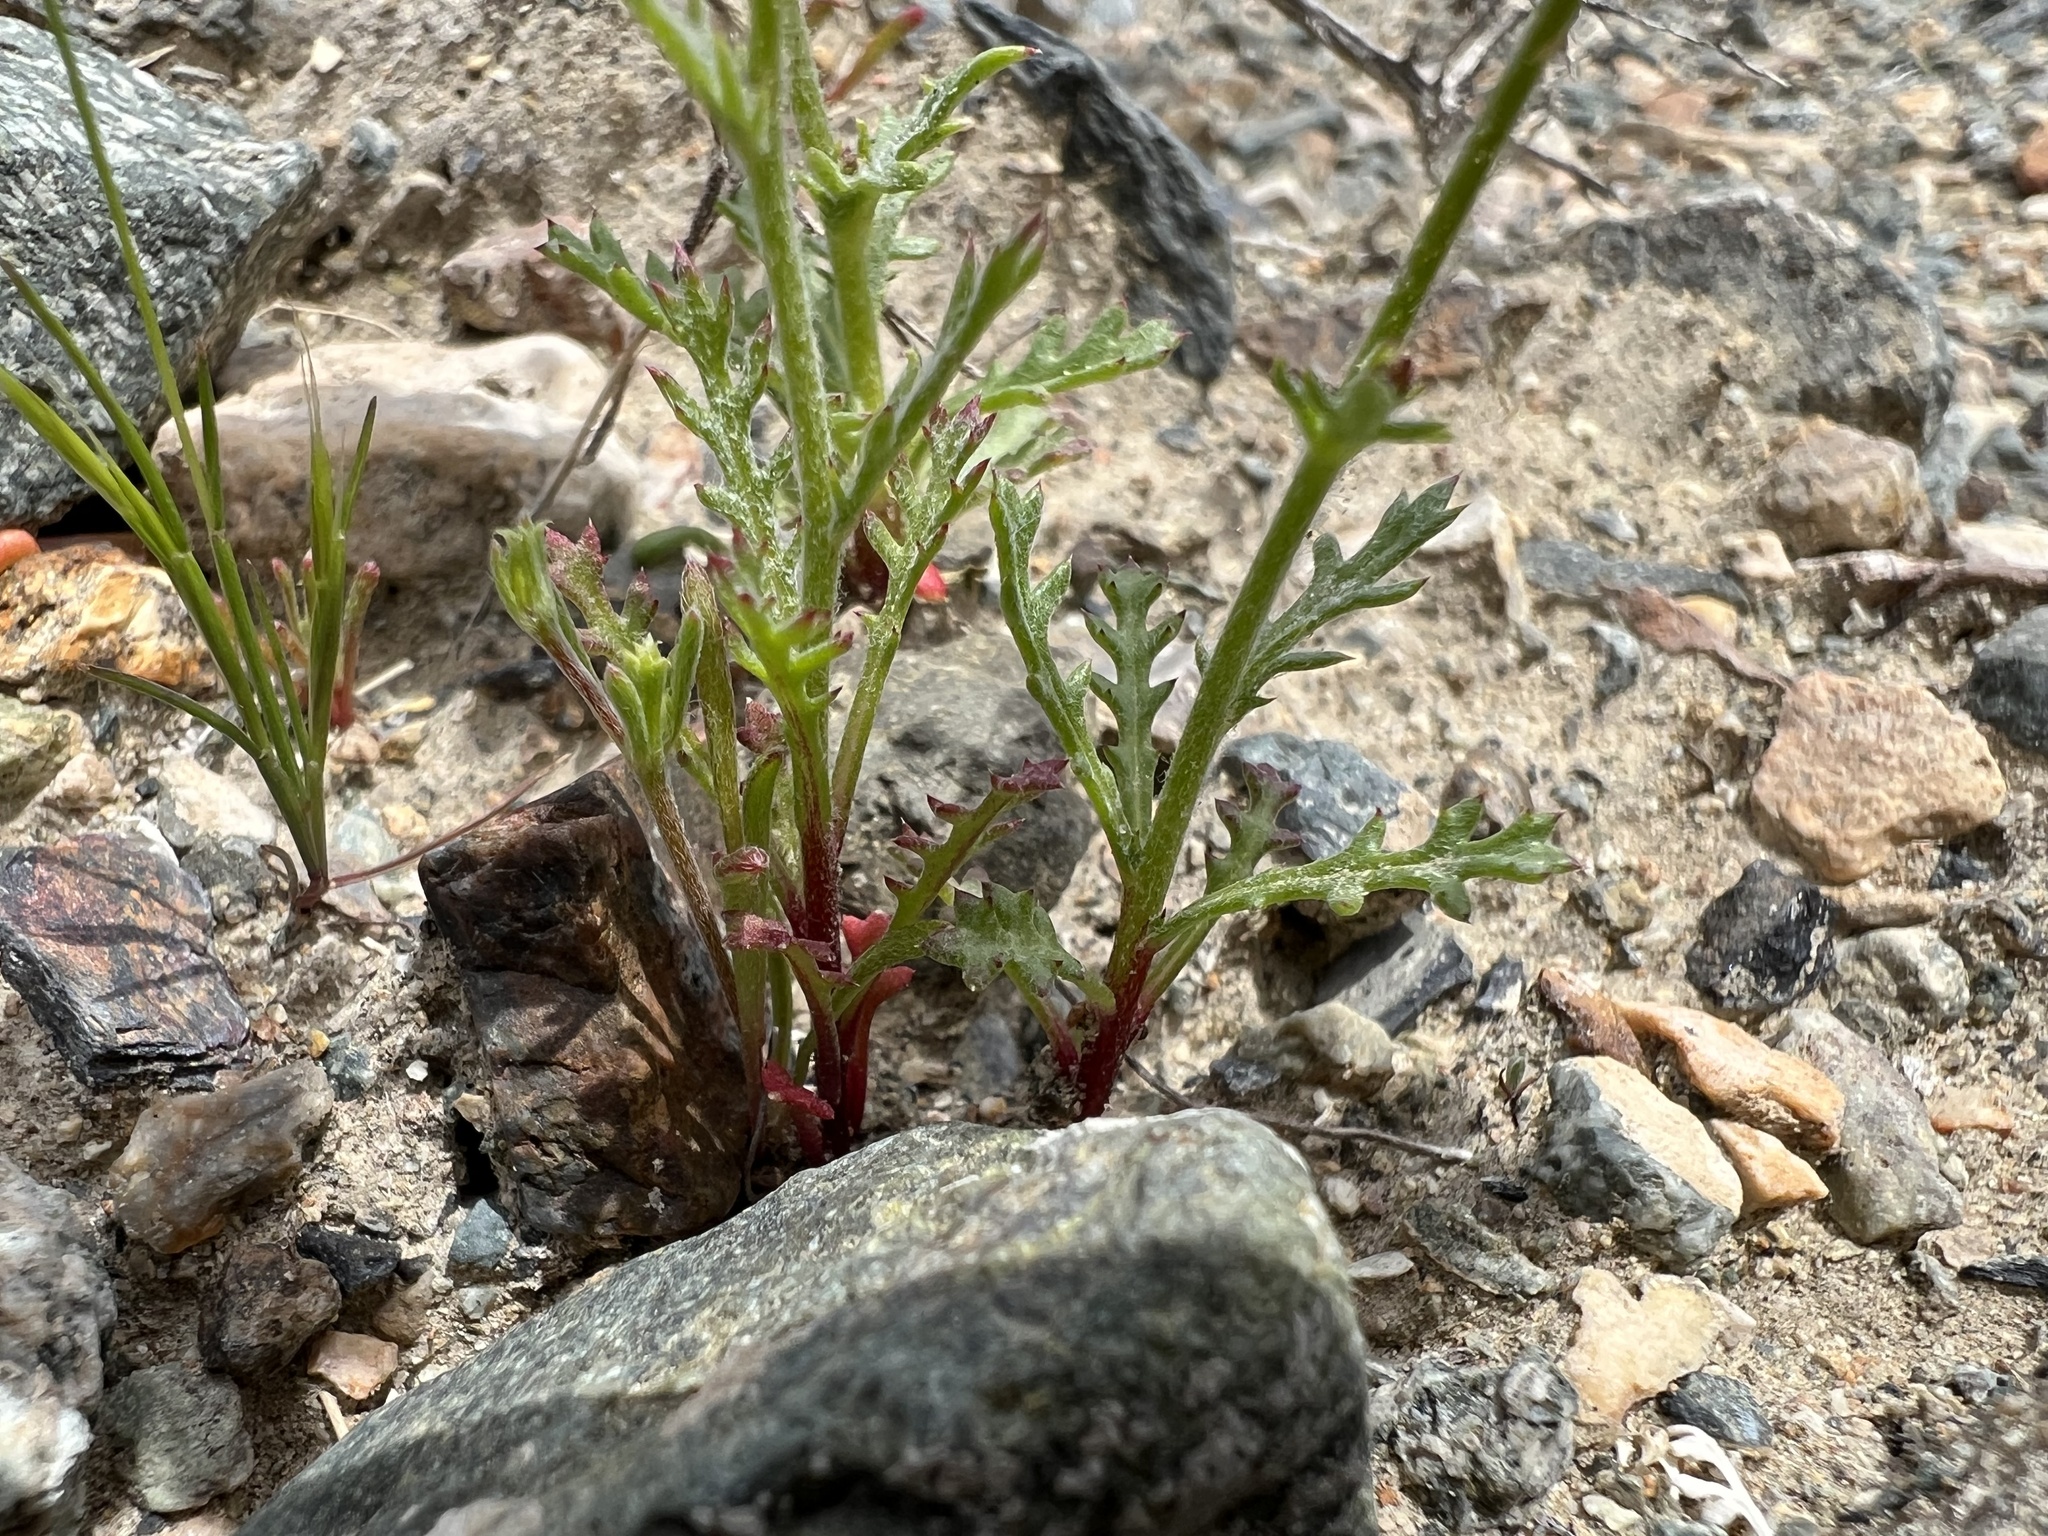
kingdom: Plantae
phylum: Tracheophyta
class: Magnoliopsida
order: Ericales
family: Polemoniaceae
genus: Gilia
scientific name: Gilia cana
